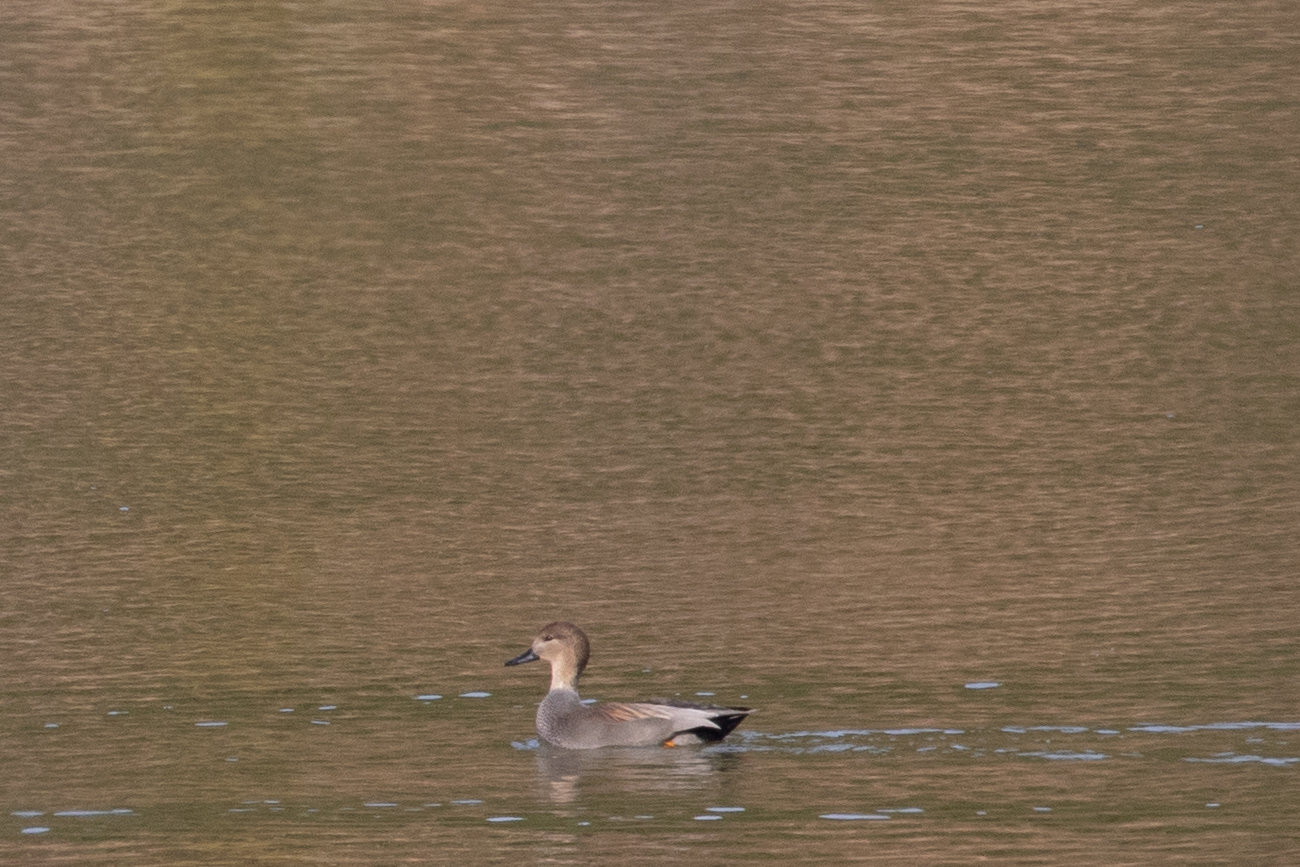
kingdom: Animalia
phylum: Chordata
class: Aves
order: Anseriformes
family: Anatidae
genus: Mareca
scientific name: Mareca strepera
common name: Gadwall
